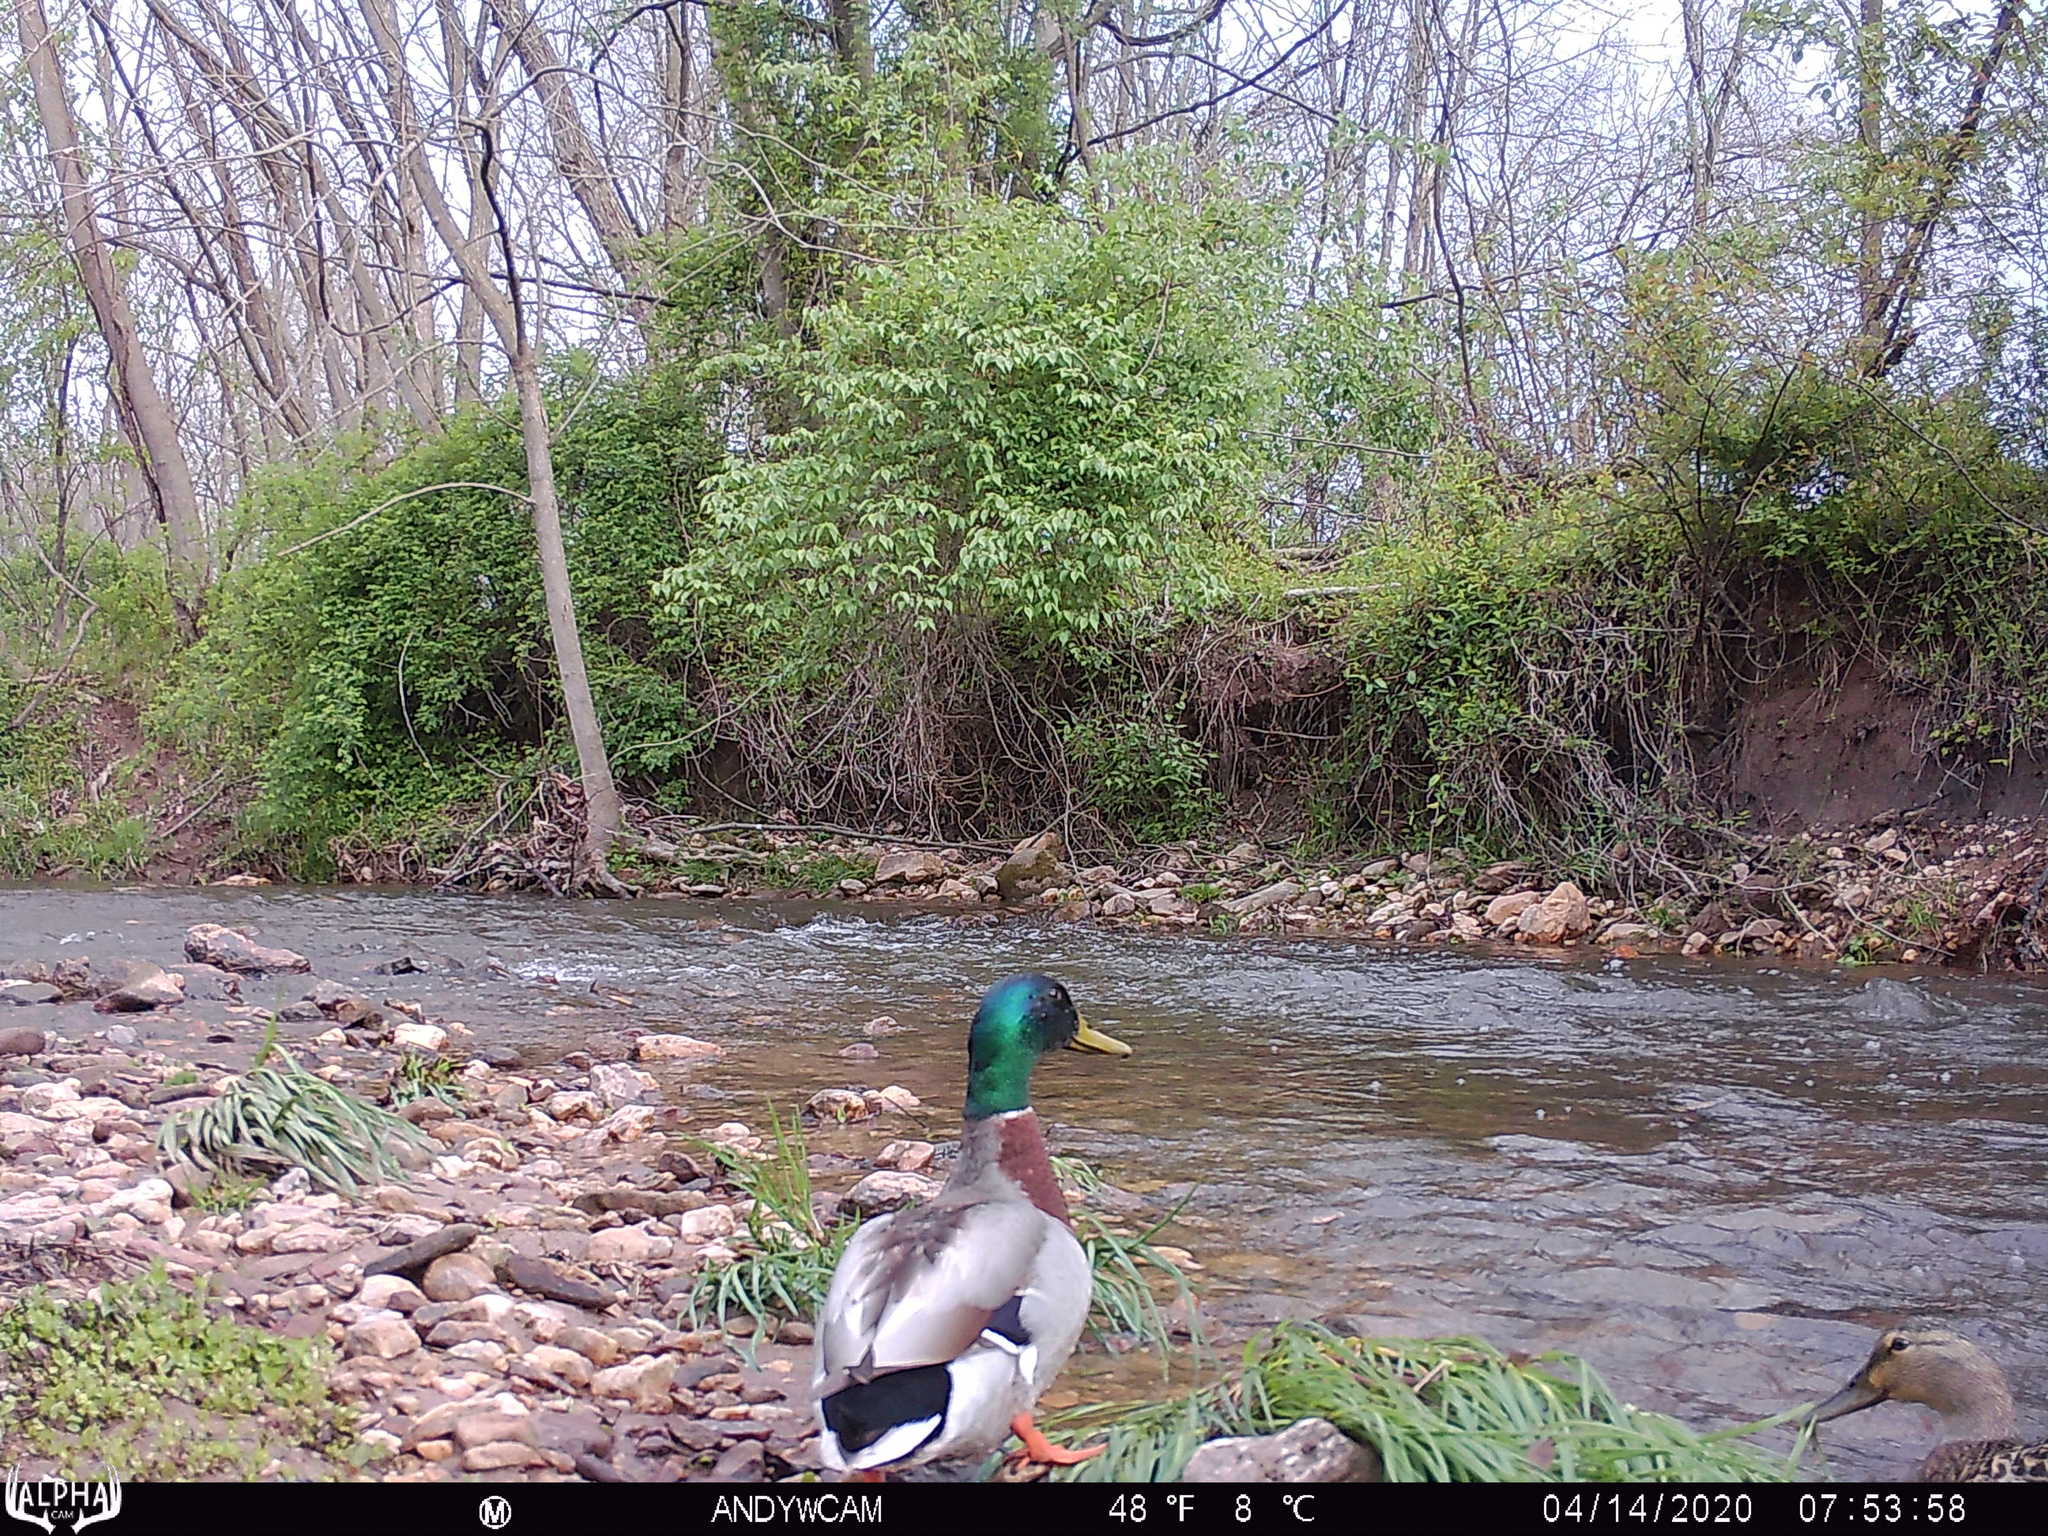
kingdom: Animalia
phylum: Chordata
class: Aves
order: Anseriformes
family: Anatidae
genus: Anas
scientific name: Anas platyrhynchos
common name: Mallard
